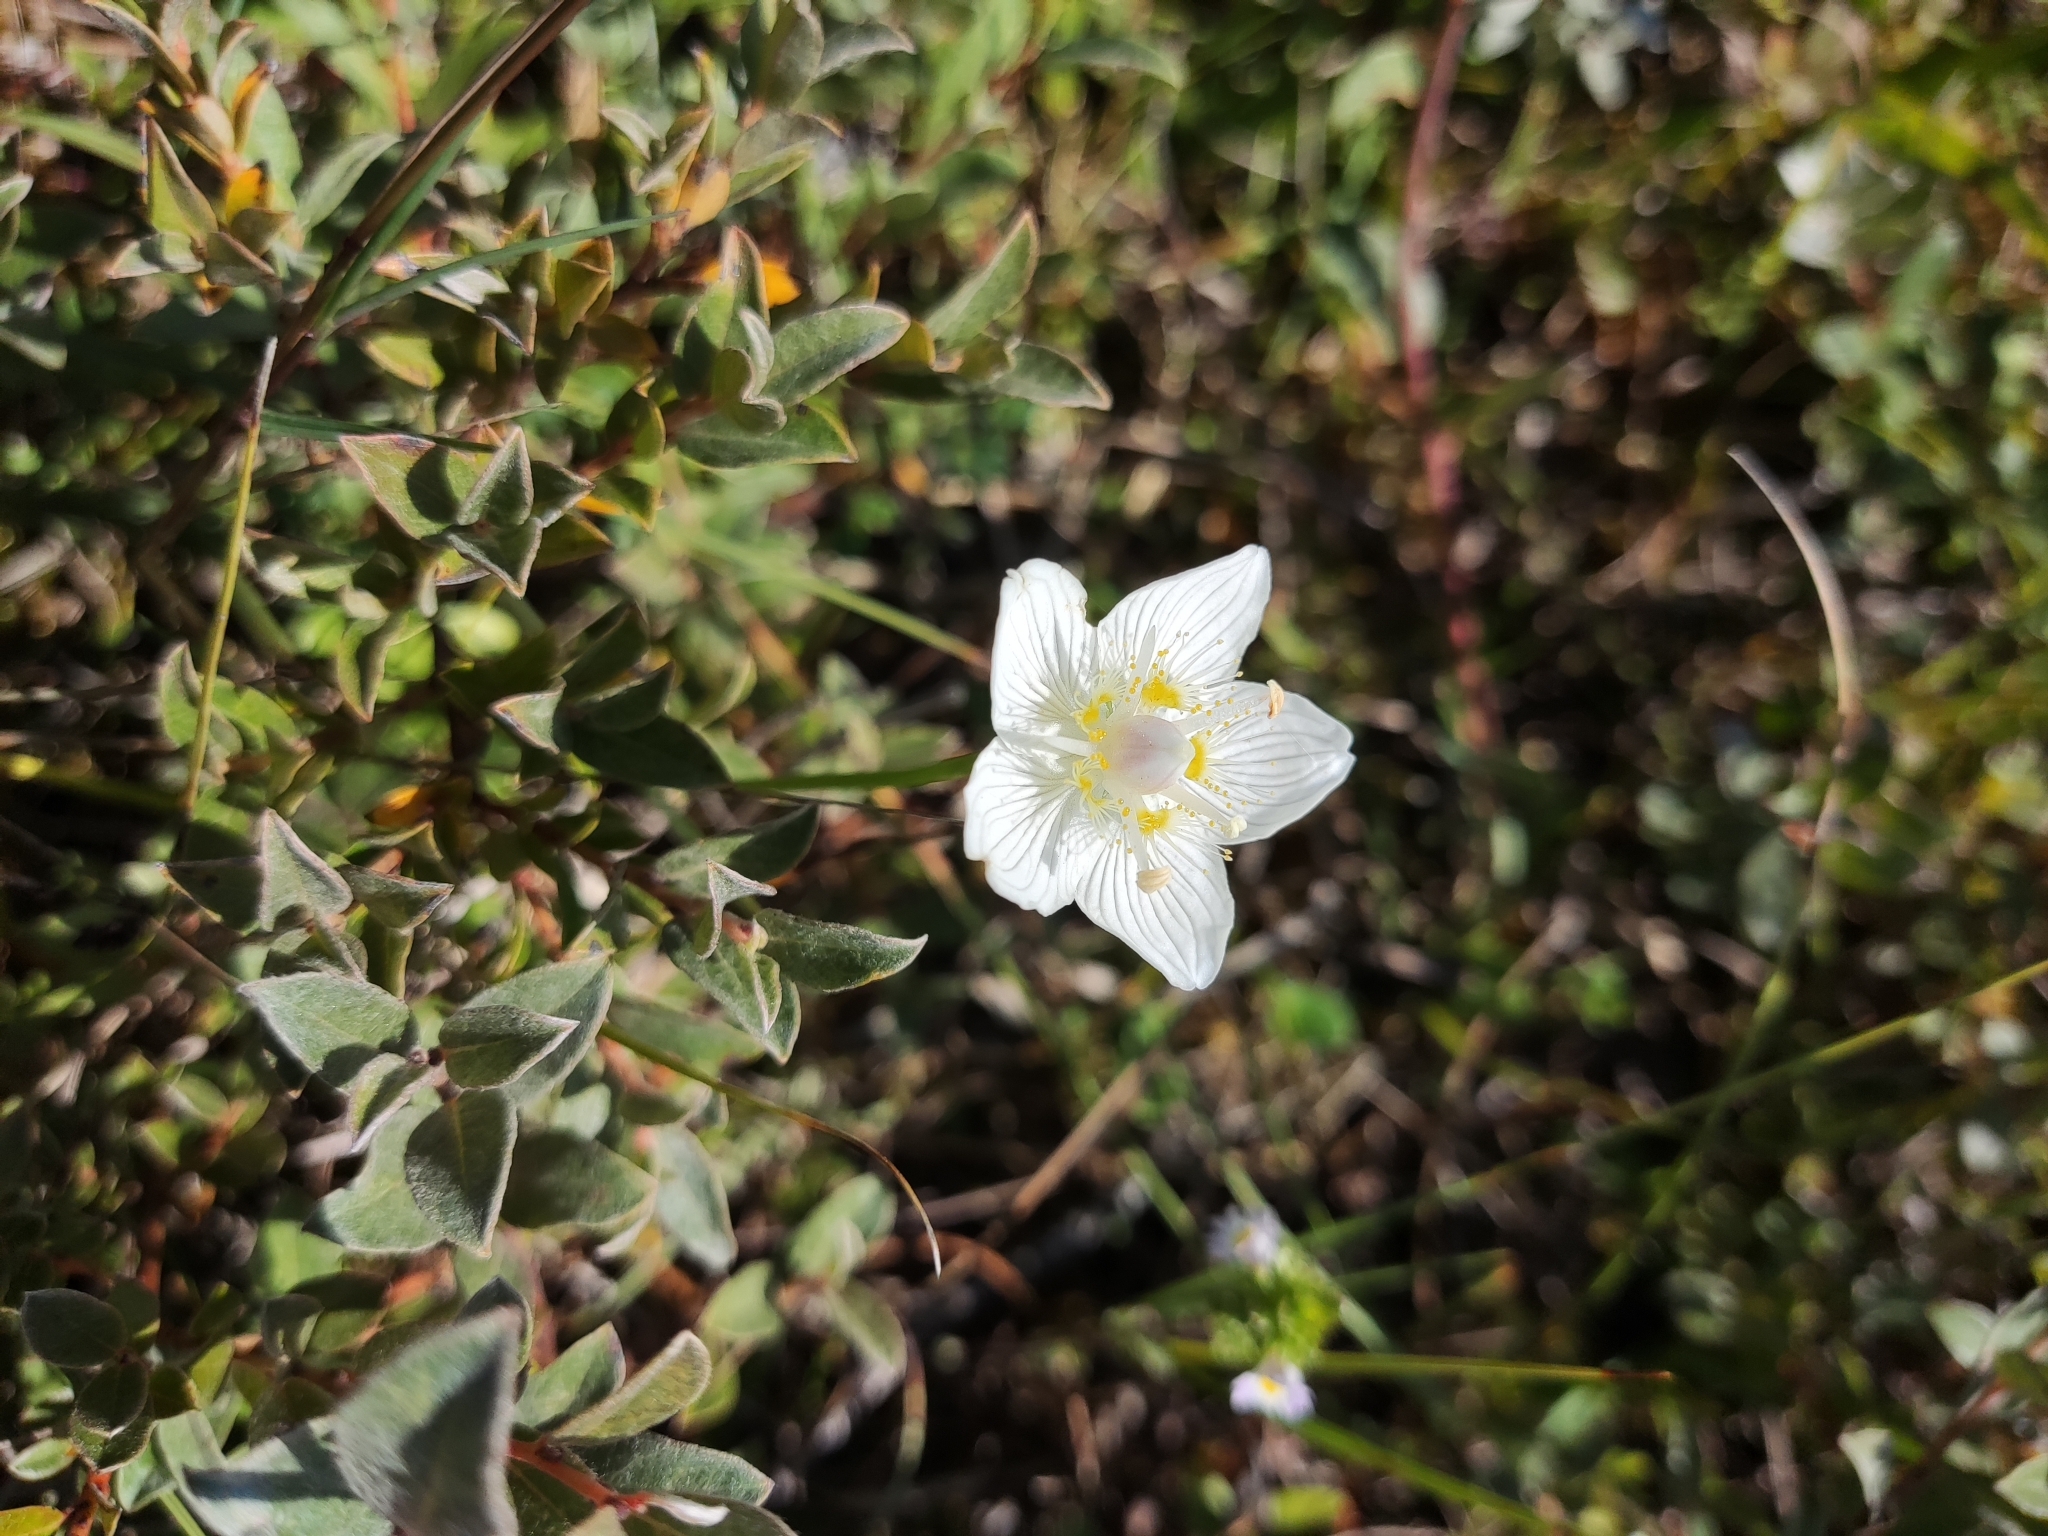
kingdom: Plantae
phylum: Tracheophyta
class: Magnoliopsida
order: Celastrales
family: Parnassiaceae
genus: Parnassia
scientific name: Parnassia palustris
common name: Grass-of-parnassus
